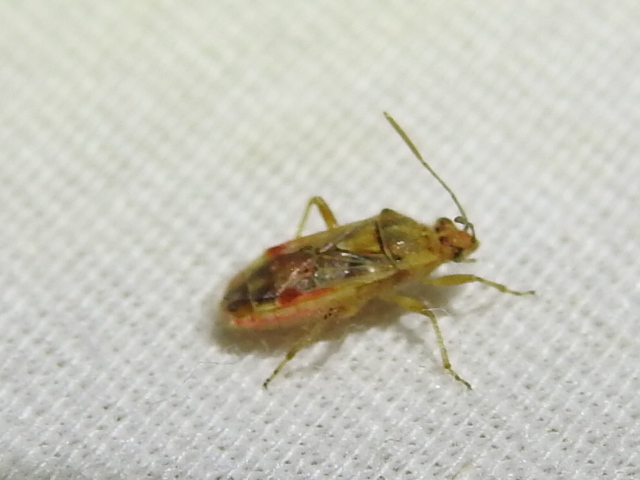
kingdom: Animalia
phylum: Arthropoda
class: Insecta
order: Hemiptera
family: Rhopalidae
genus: Liorhyssus
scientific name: Liorhyssus hyalinus
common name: Scentless plant bug
